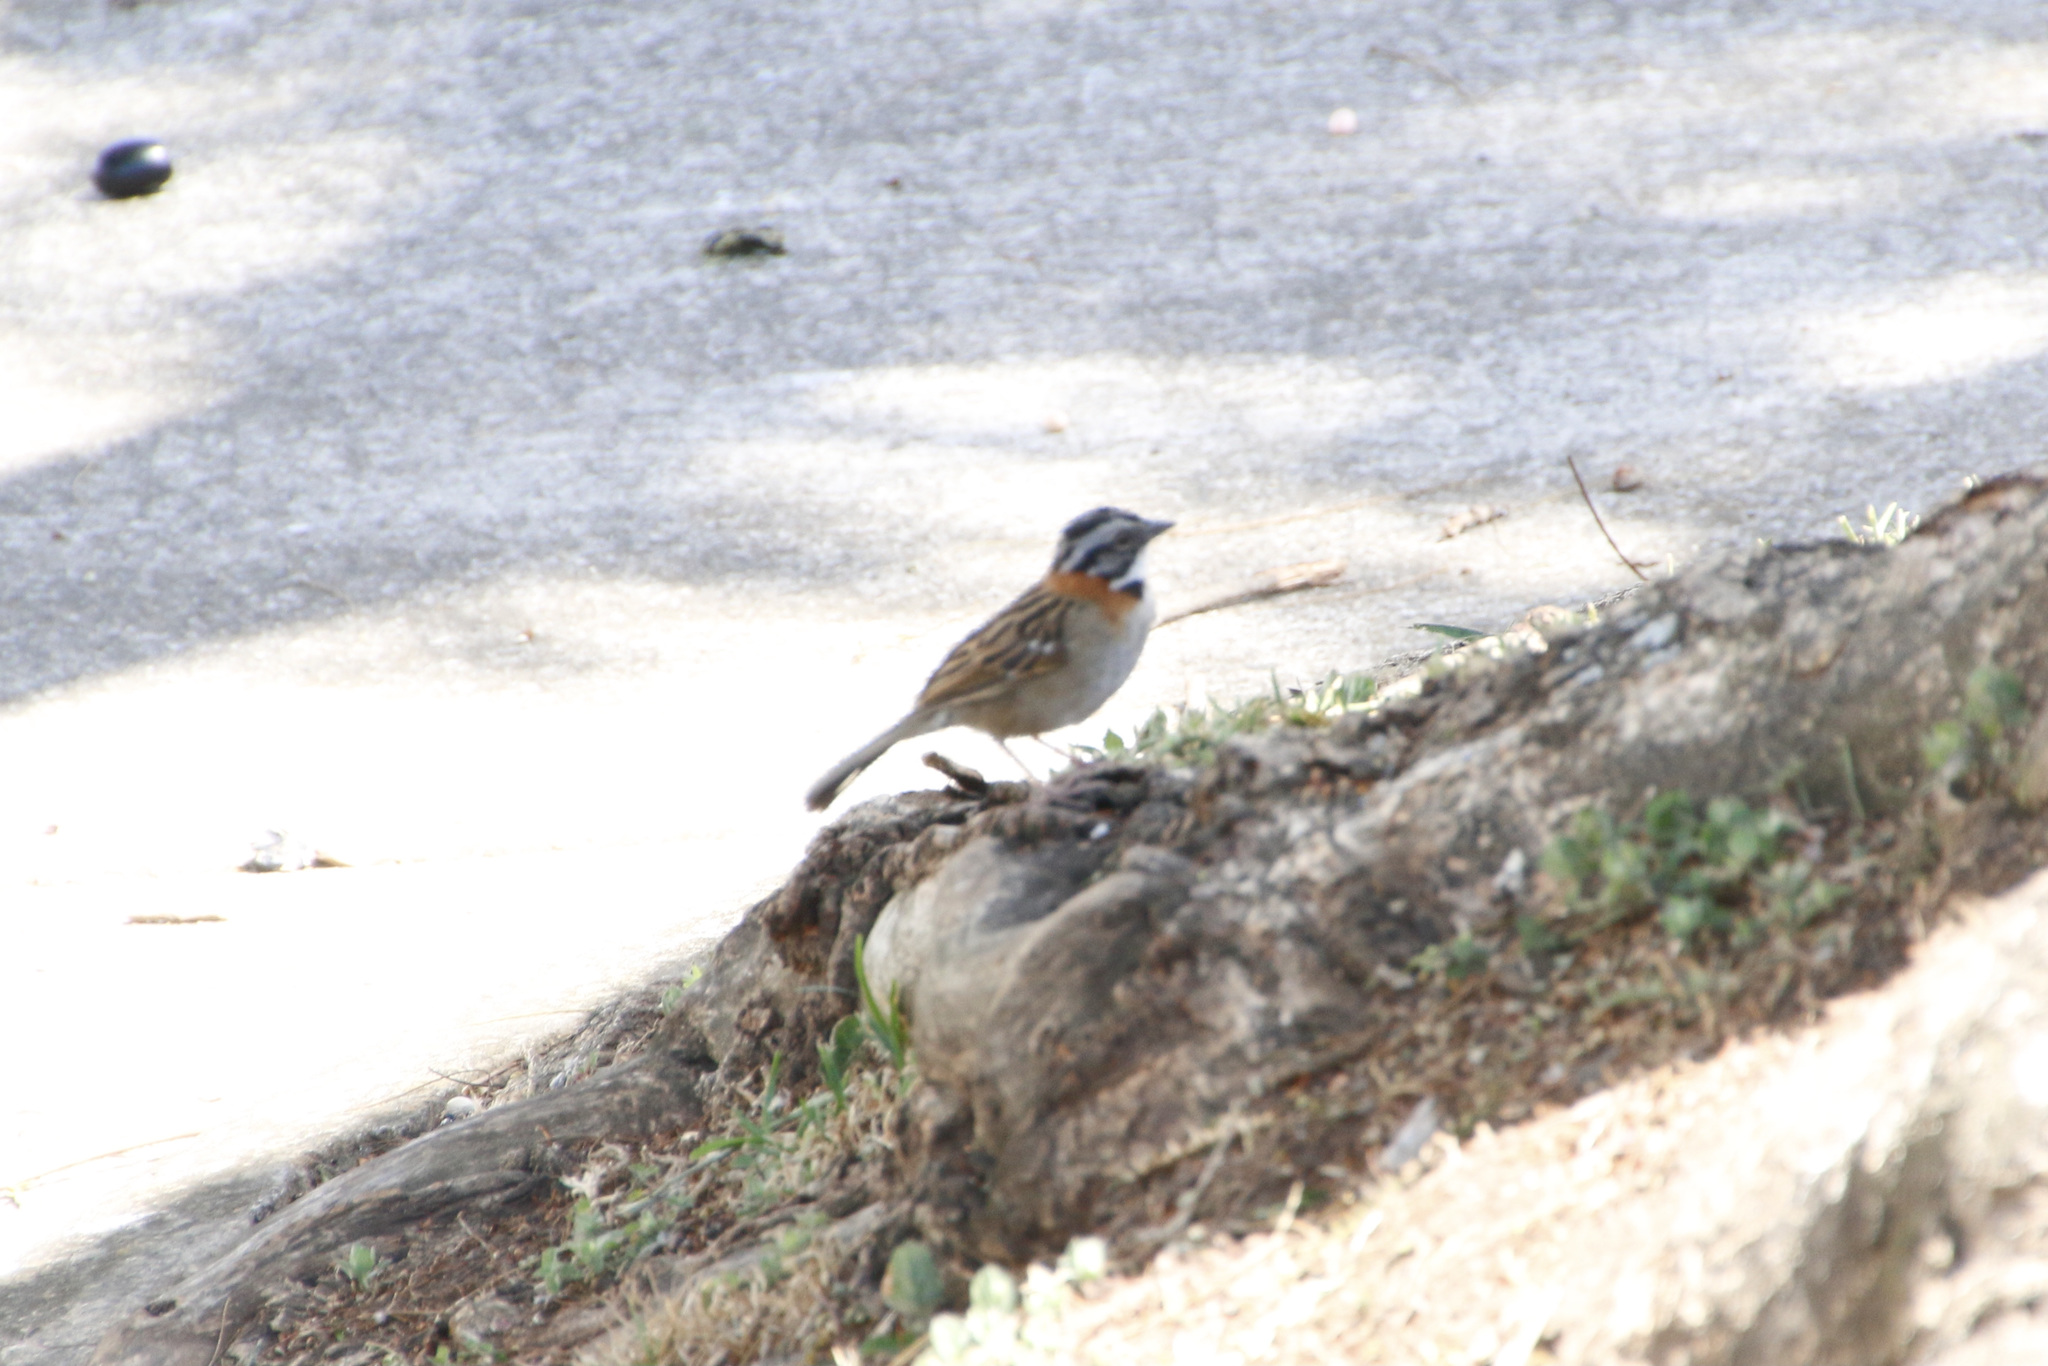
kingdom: Animalia
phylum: Chordata
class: Aves
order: Passeriformes
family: Passerellidae
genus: Zonotrichia
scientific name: Zonotrichia capensis
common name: Rufous-collared sparrow
